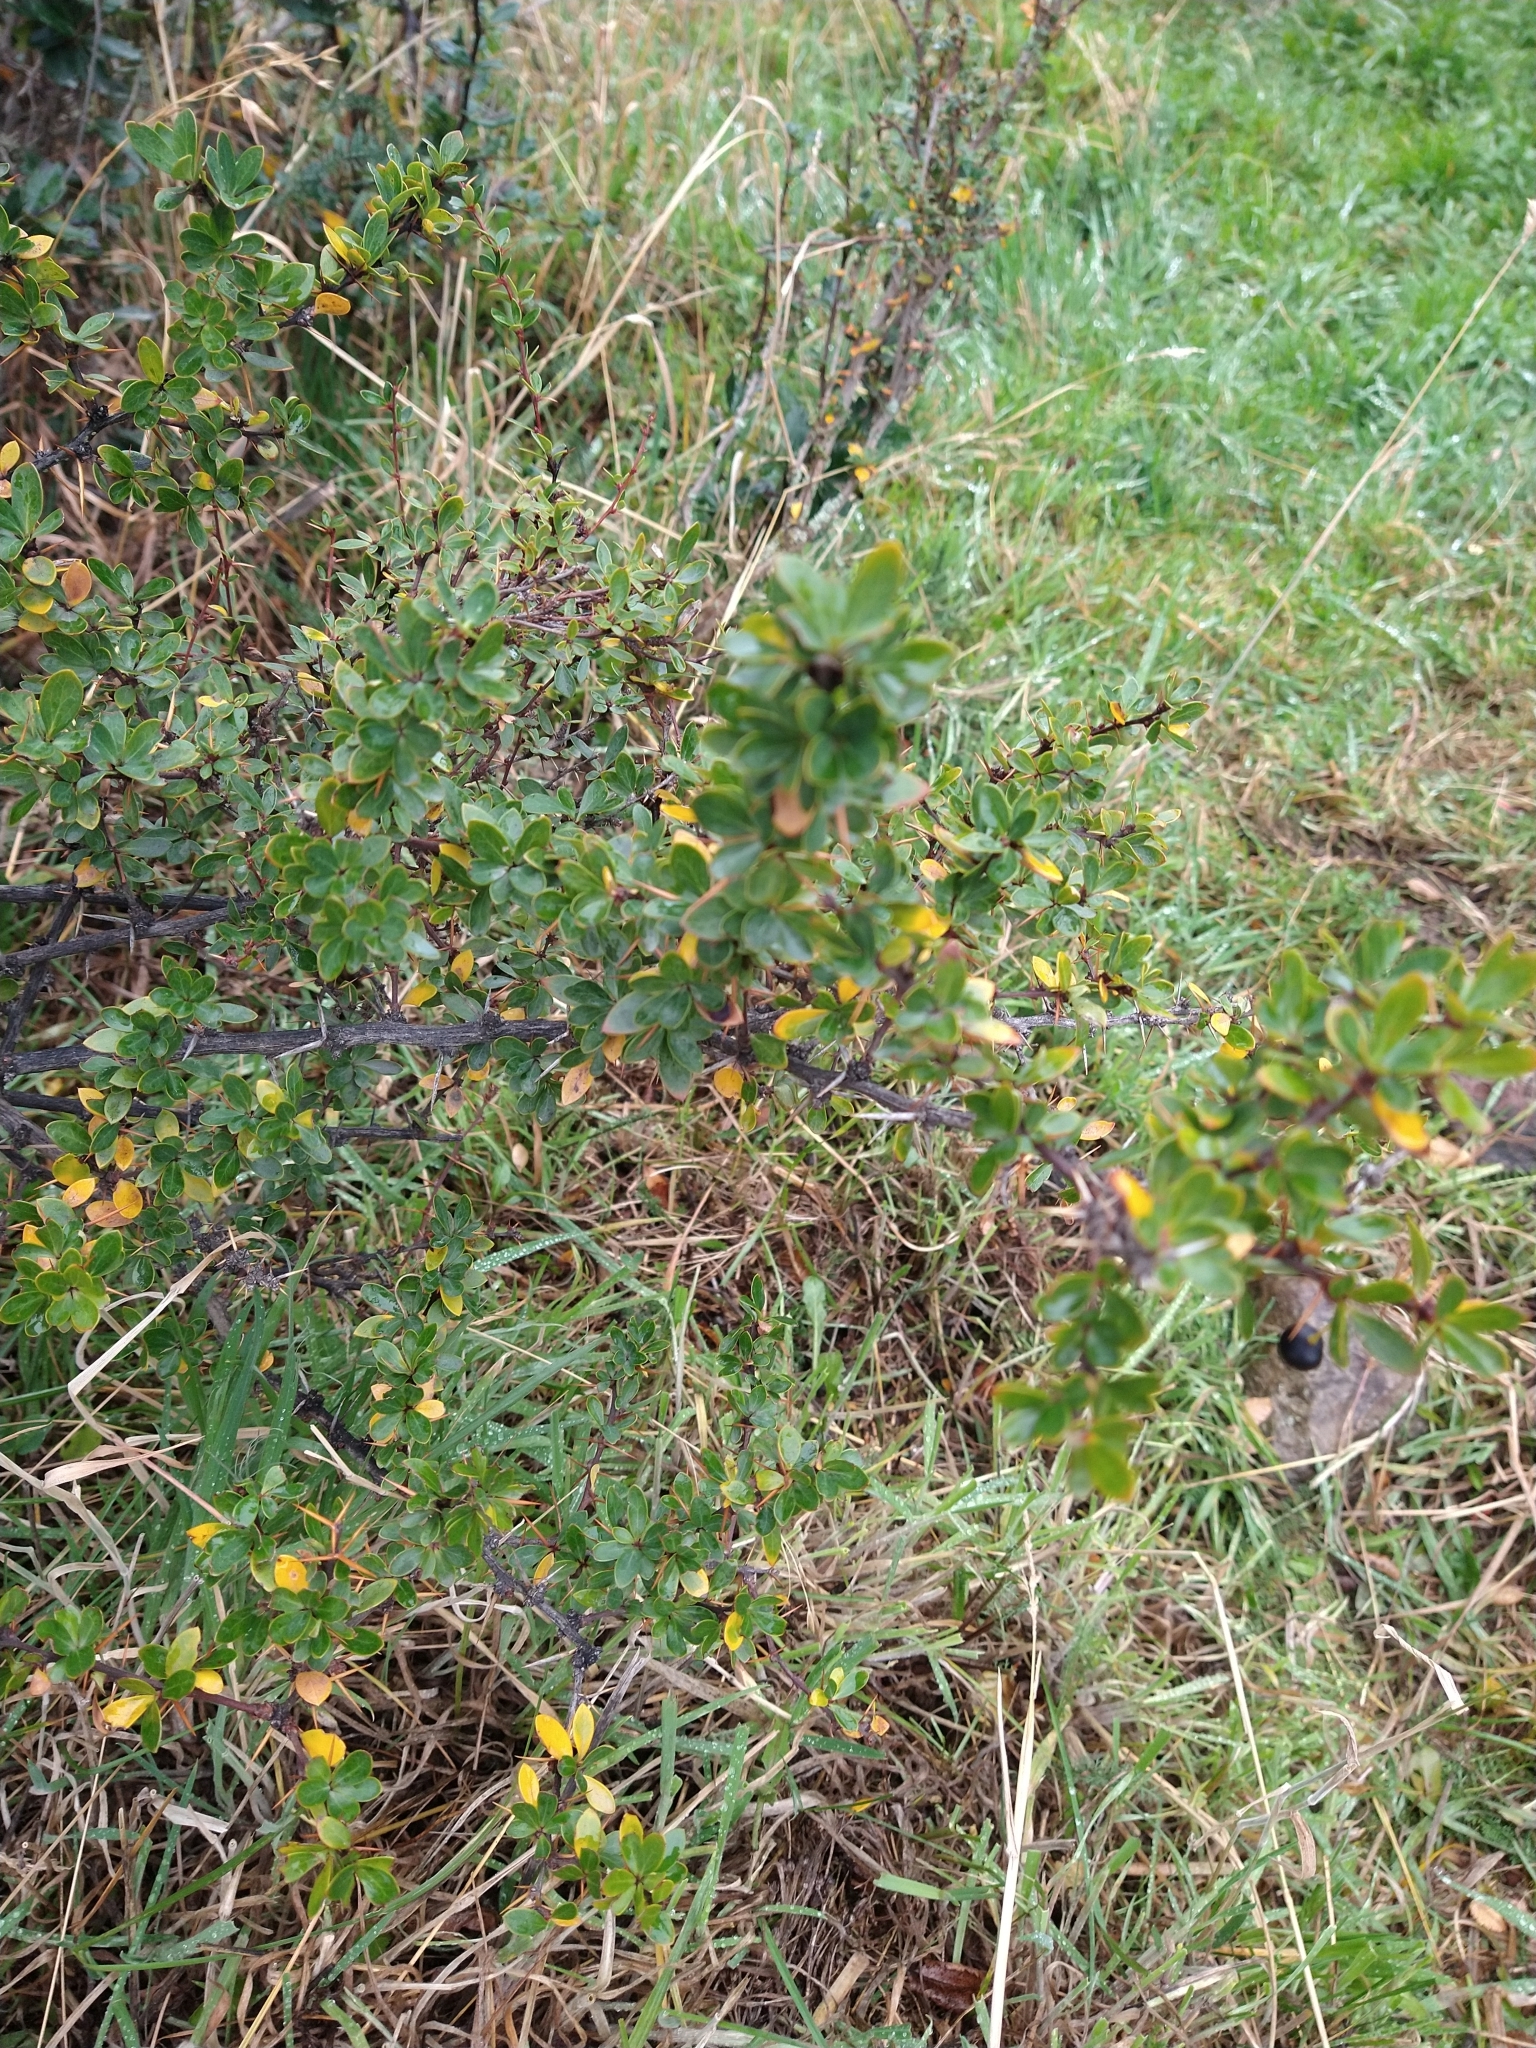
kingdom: Plantae
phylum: Tracheophyta
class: Magnoliopsida
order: Ranunculales
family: Berberidaceae
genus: Berberis
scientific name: Berberis microphylla
